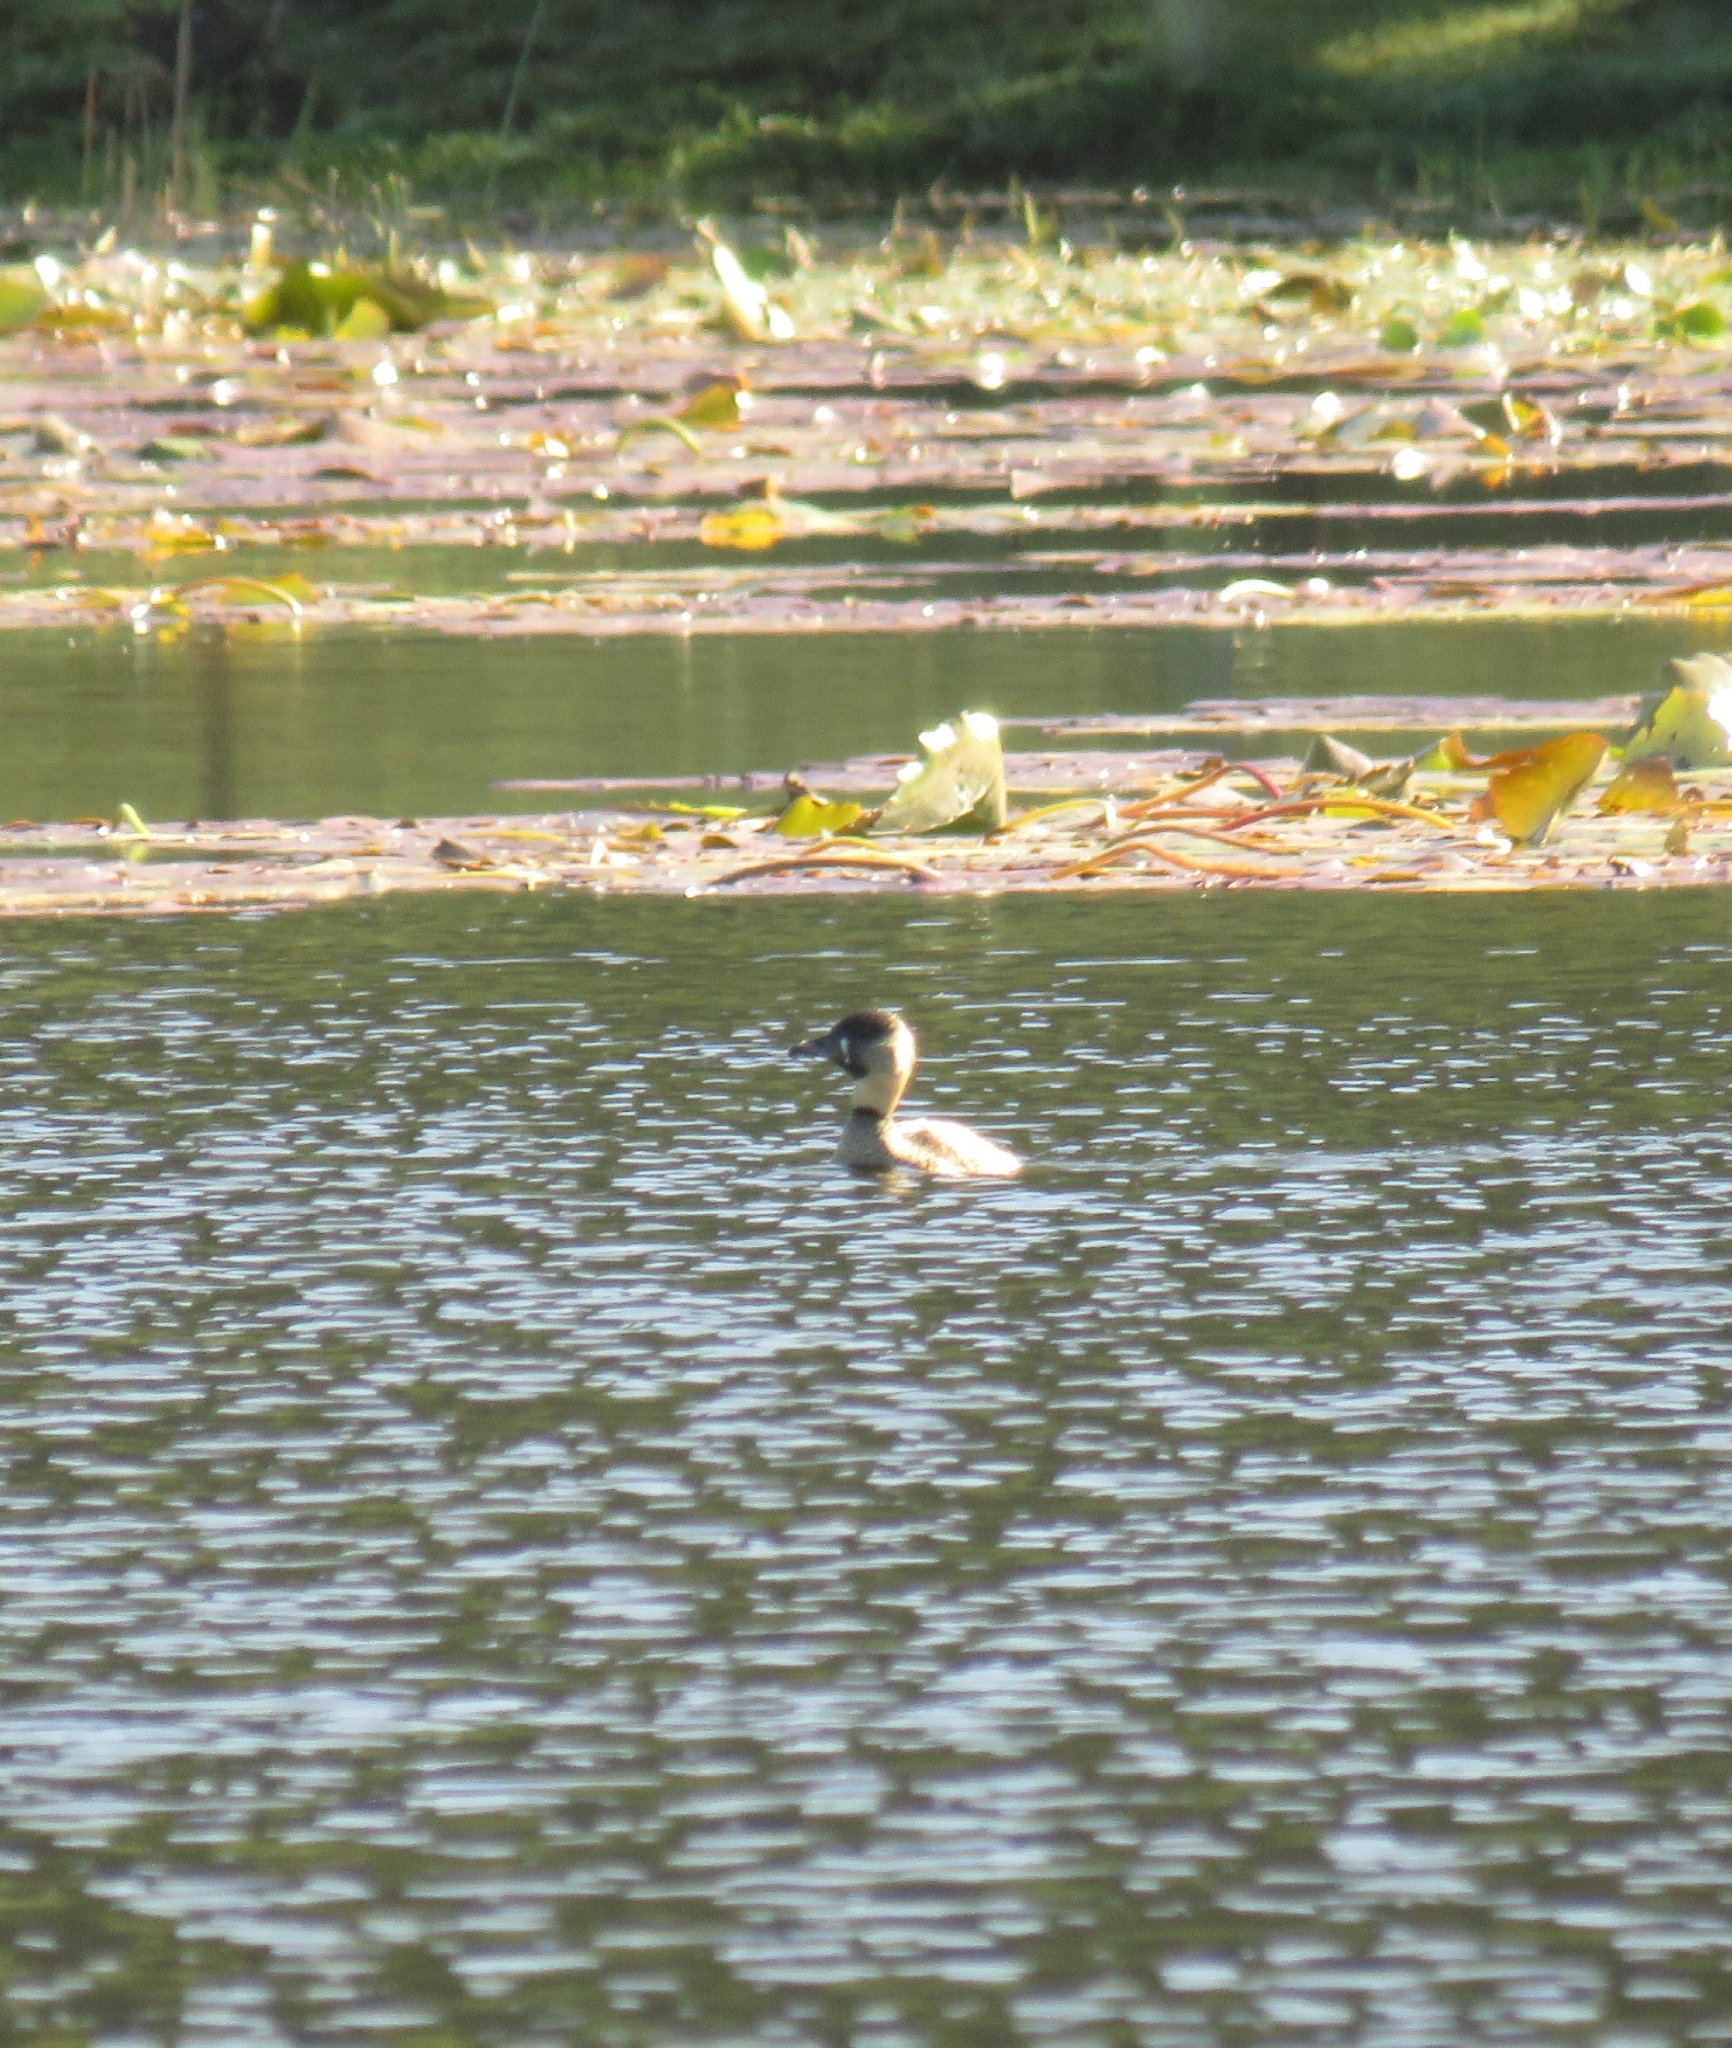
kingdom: Animalia
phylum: Chordata
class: Aves
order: Anseriformes
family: Anatidae
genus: Thalassornis
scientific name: Thalassornis leuconotus
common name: White-backed duck
